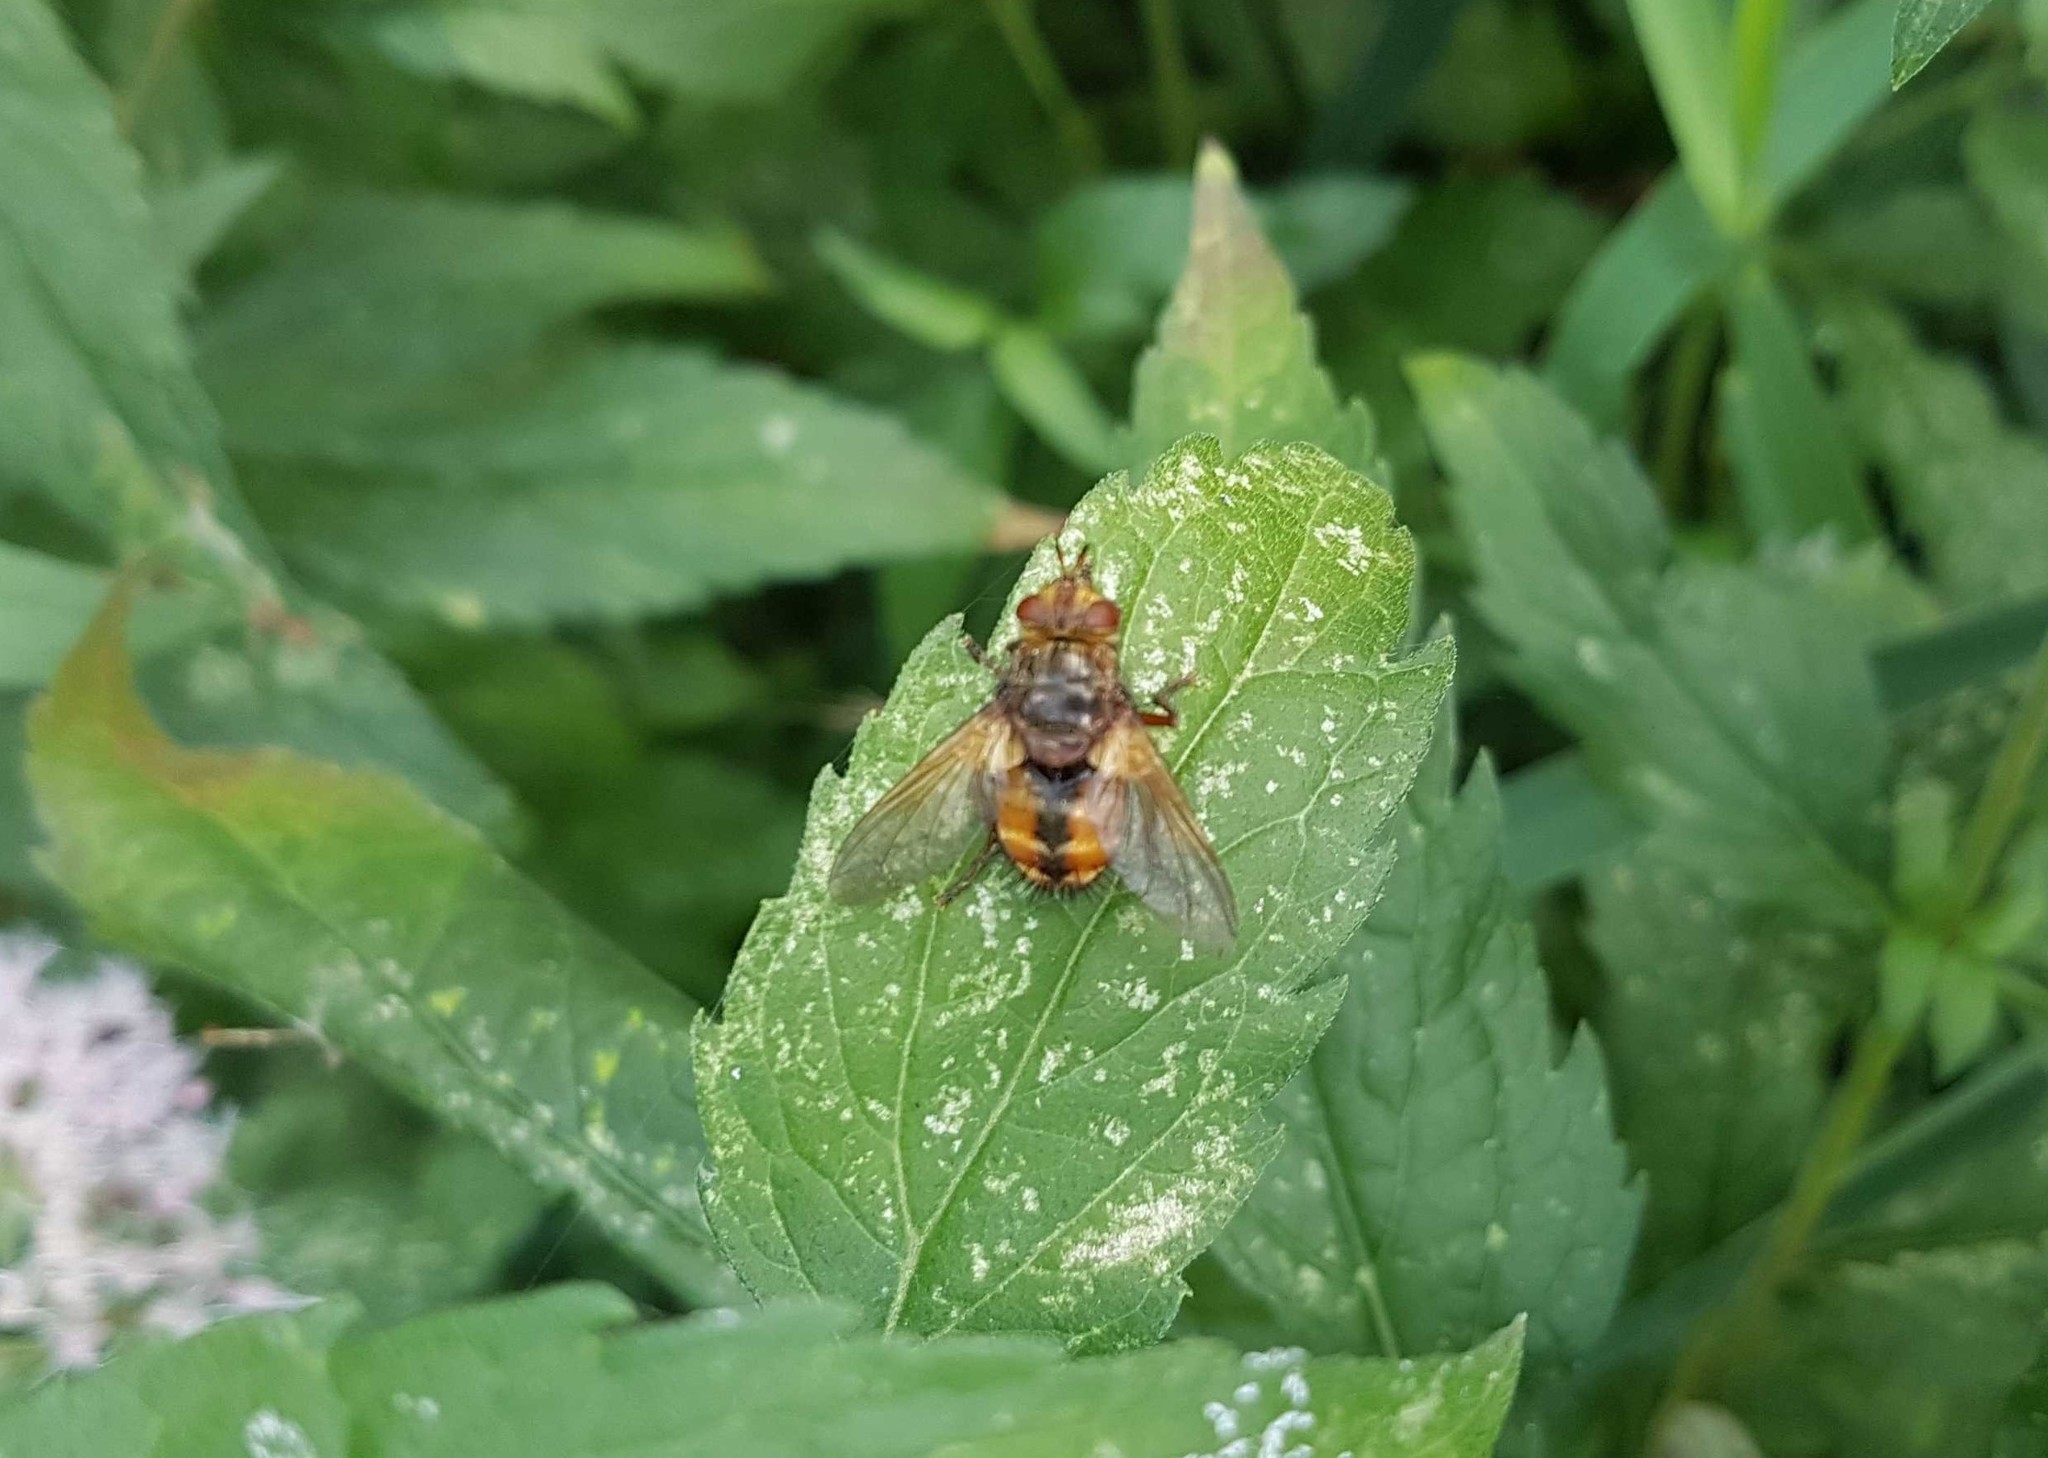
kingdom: Animalia
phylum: Arthropoda
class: Insecta
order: Diptera
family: Tachinidae
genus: Tachina
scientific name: Tachina fera
